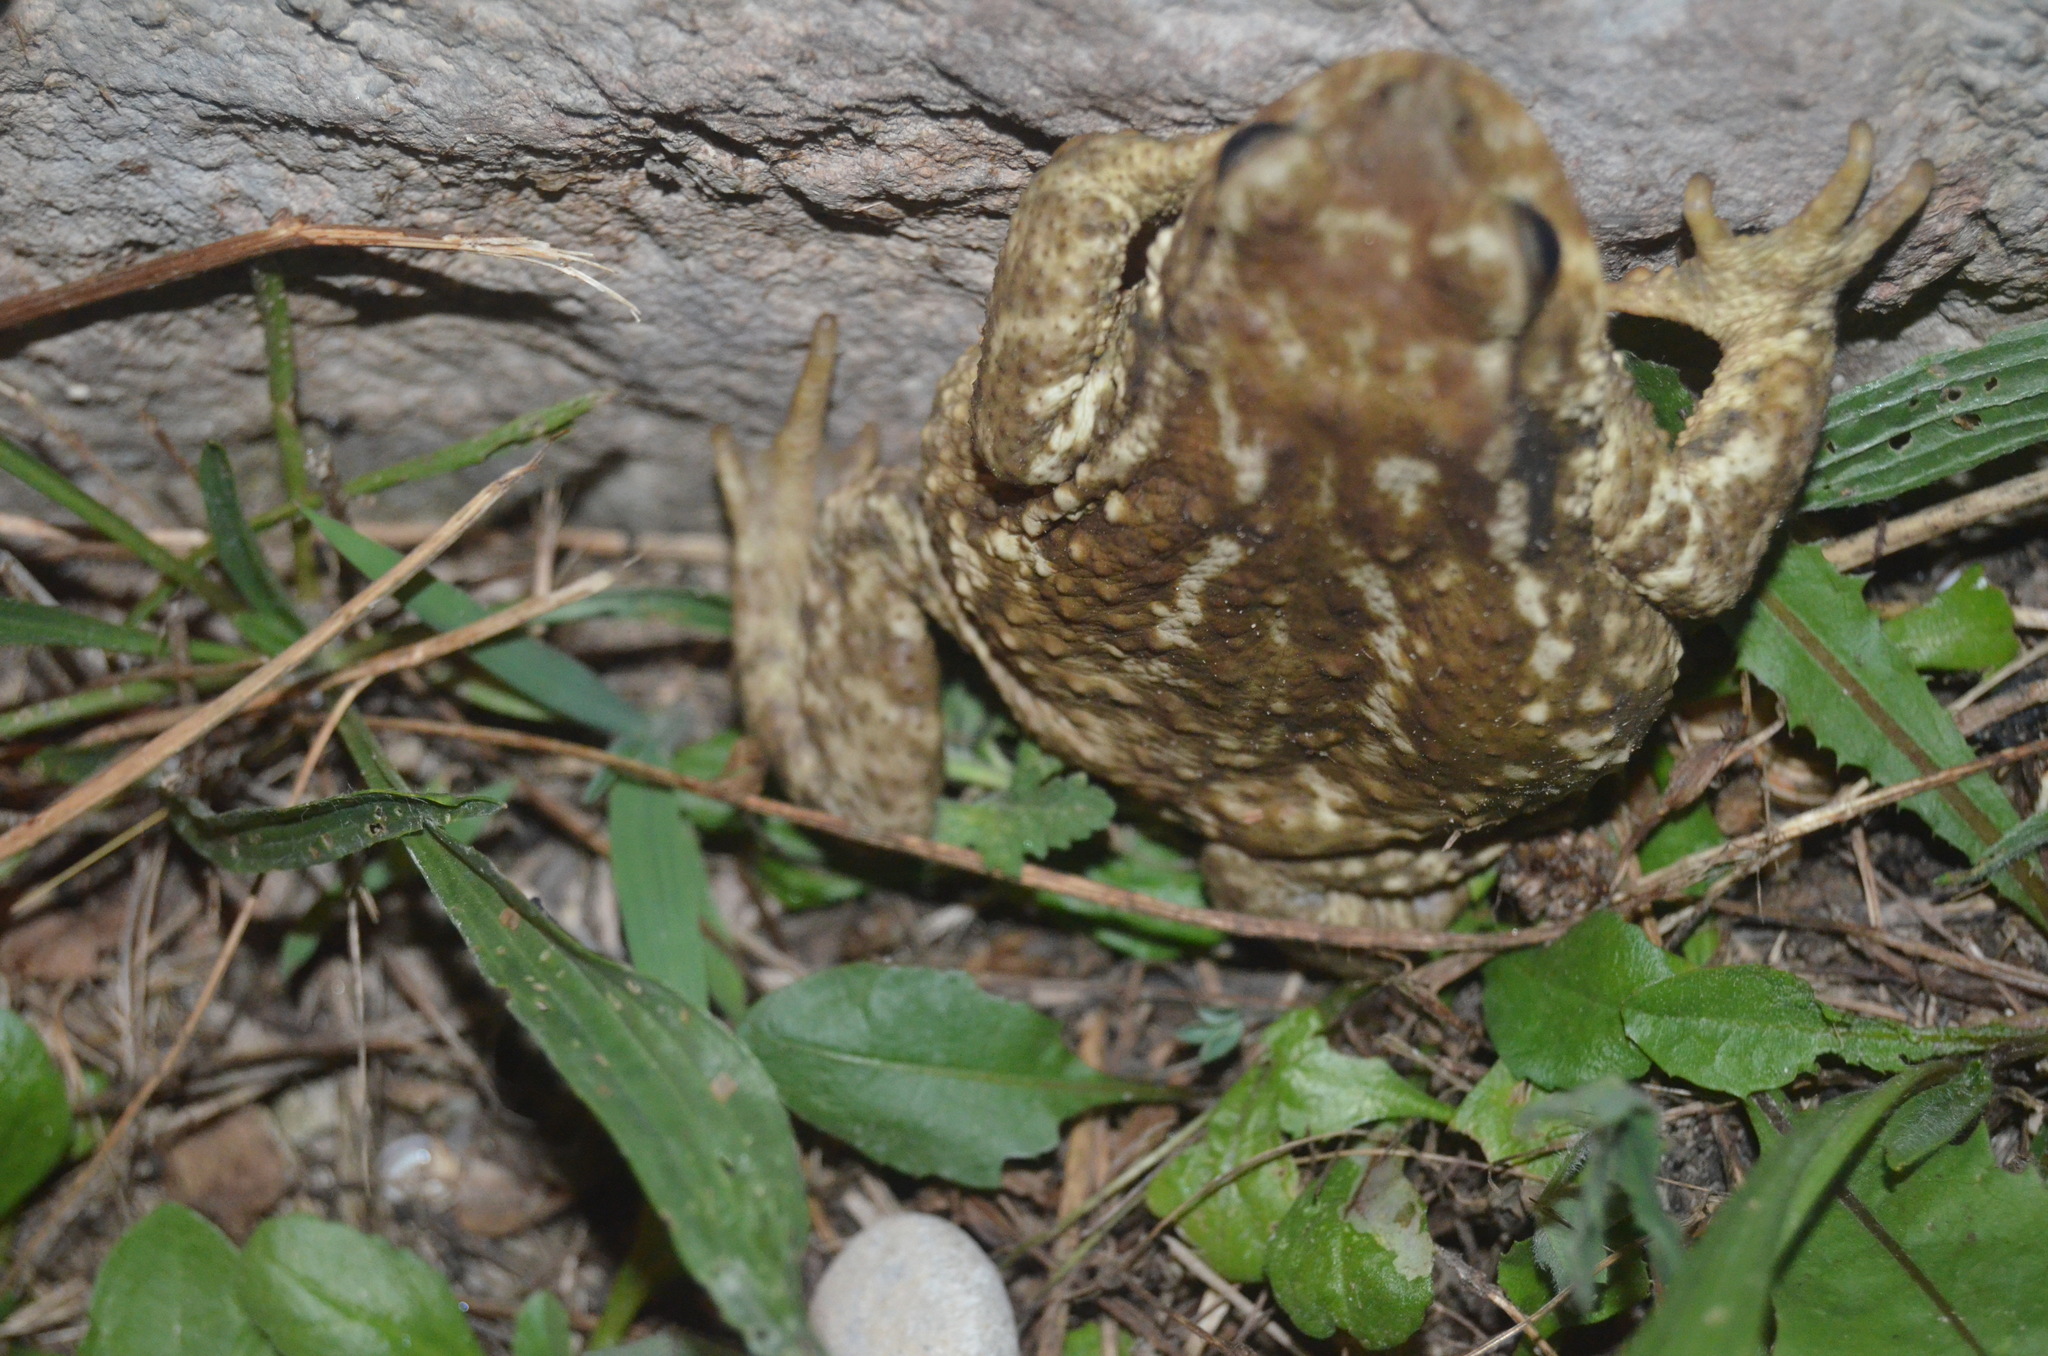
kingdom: Animalia
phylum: Chordata
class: Amphibia
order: Anura
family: Bufonidae
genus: Bufo
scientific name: Bufo spinosus
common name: Western common toad
